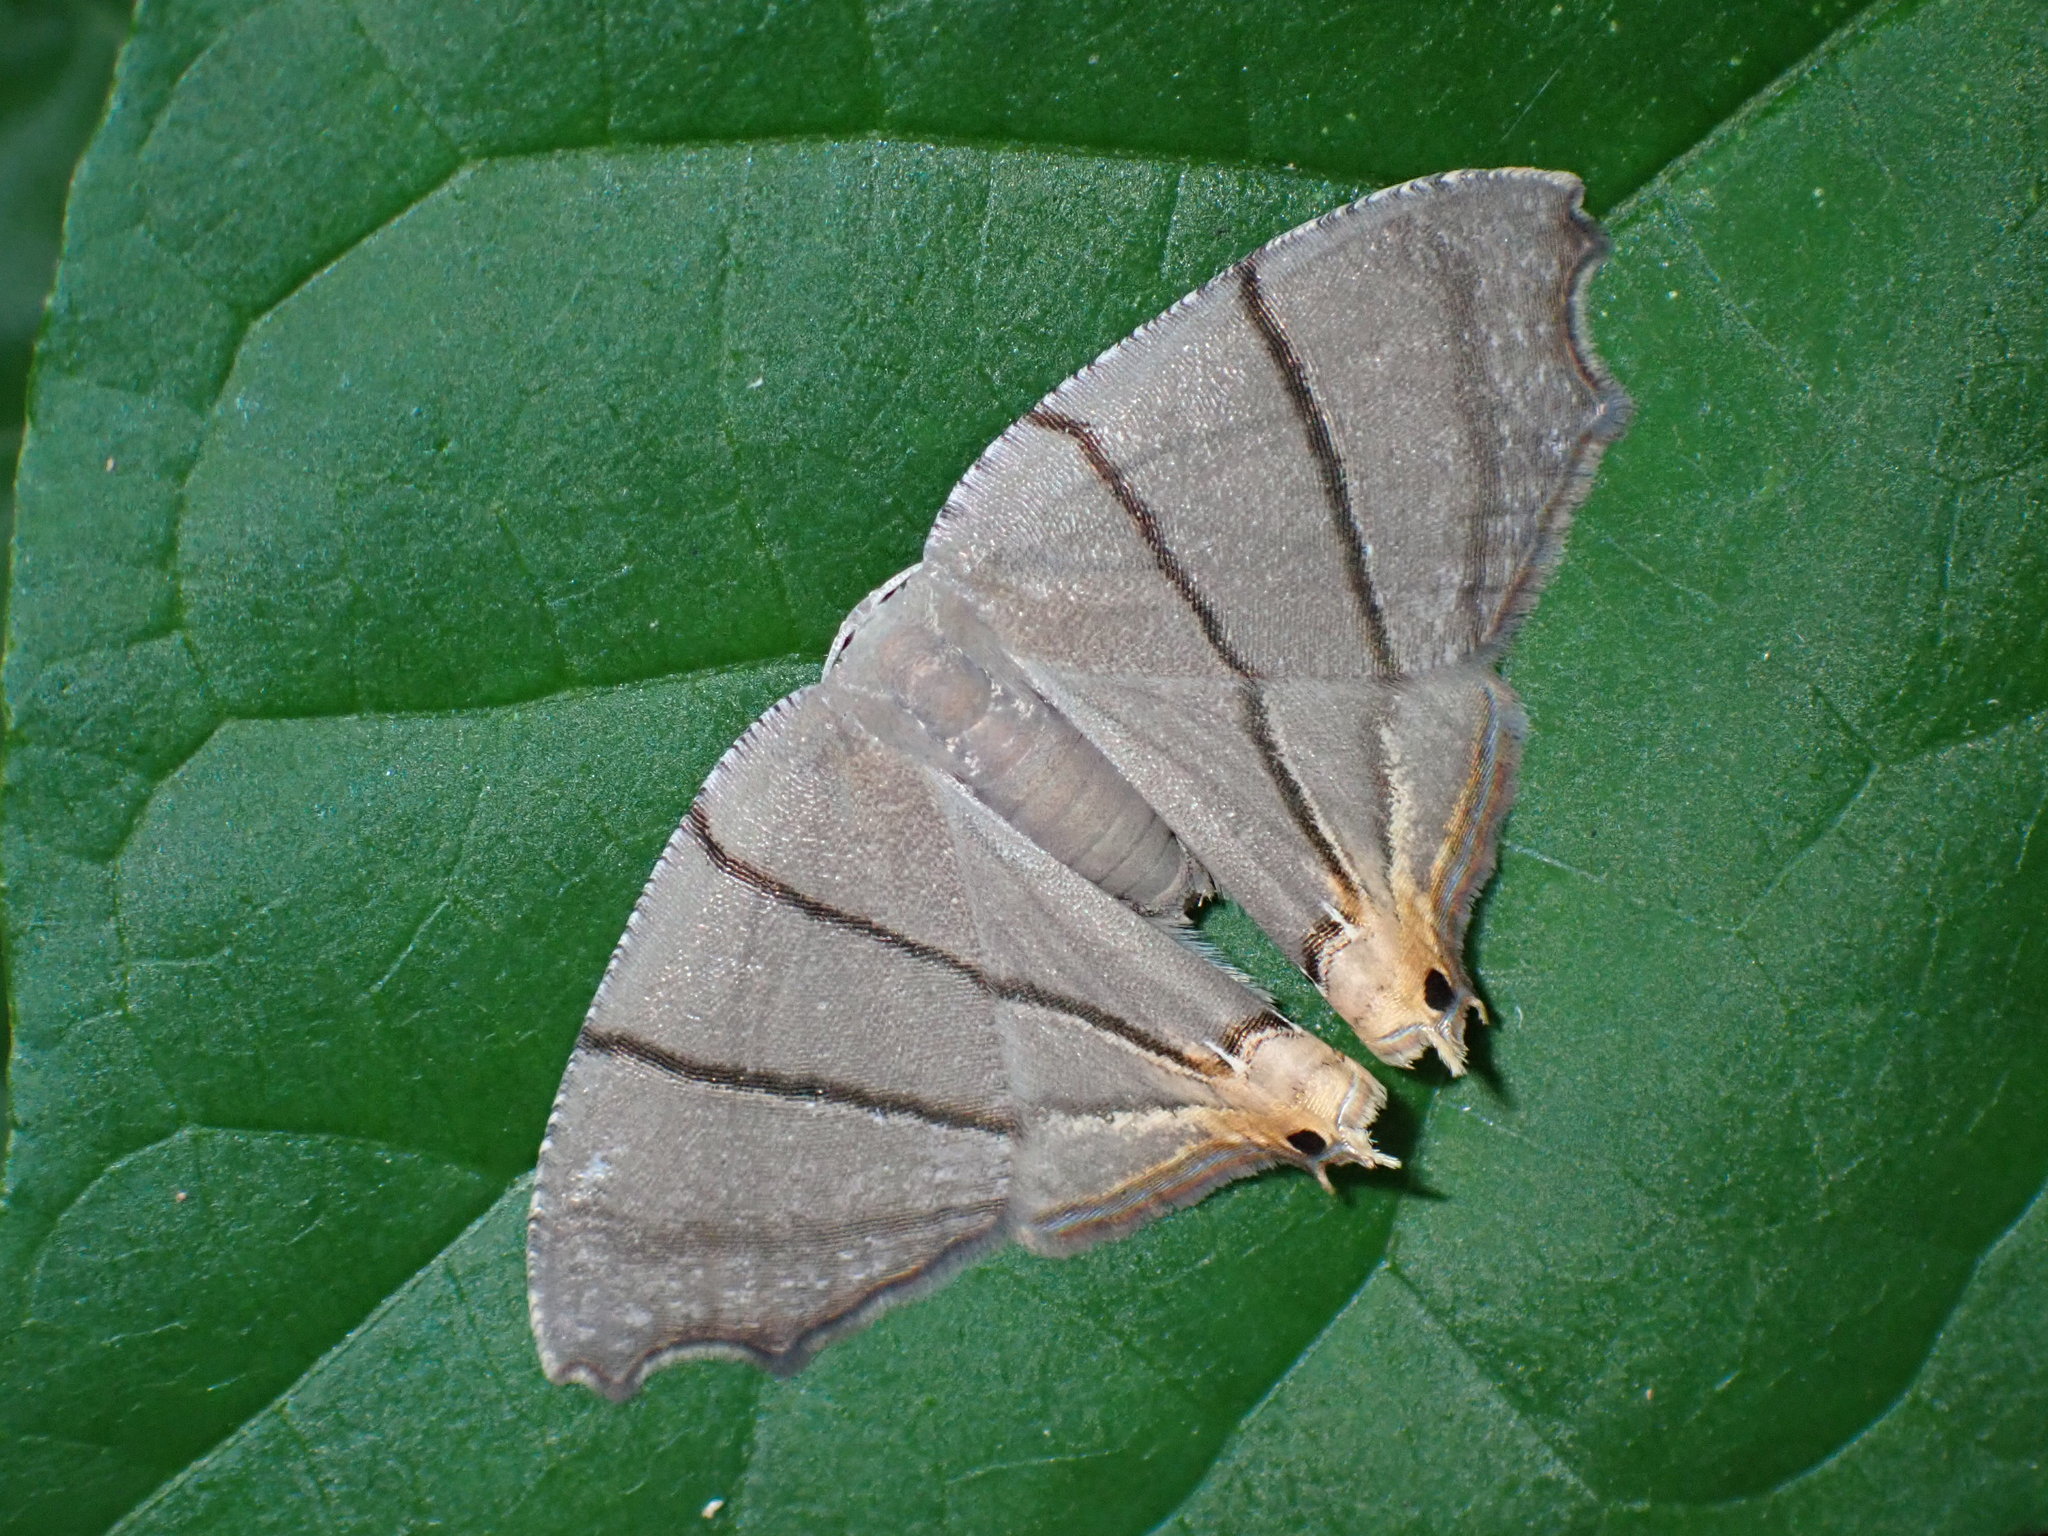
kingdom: Animalia
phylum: Arthropoda
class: Insecta
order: Lepidoptera
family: Uraniidae
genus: Orudiza
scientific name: Orudiza protheclaria
